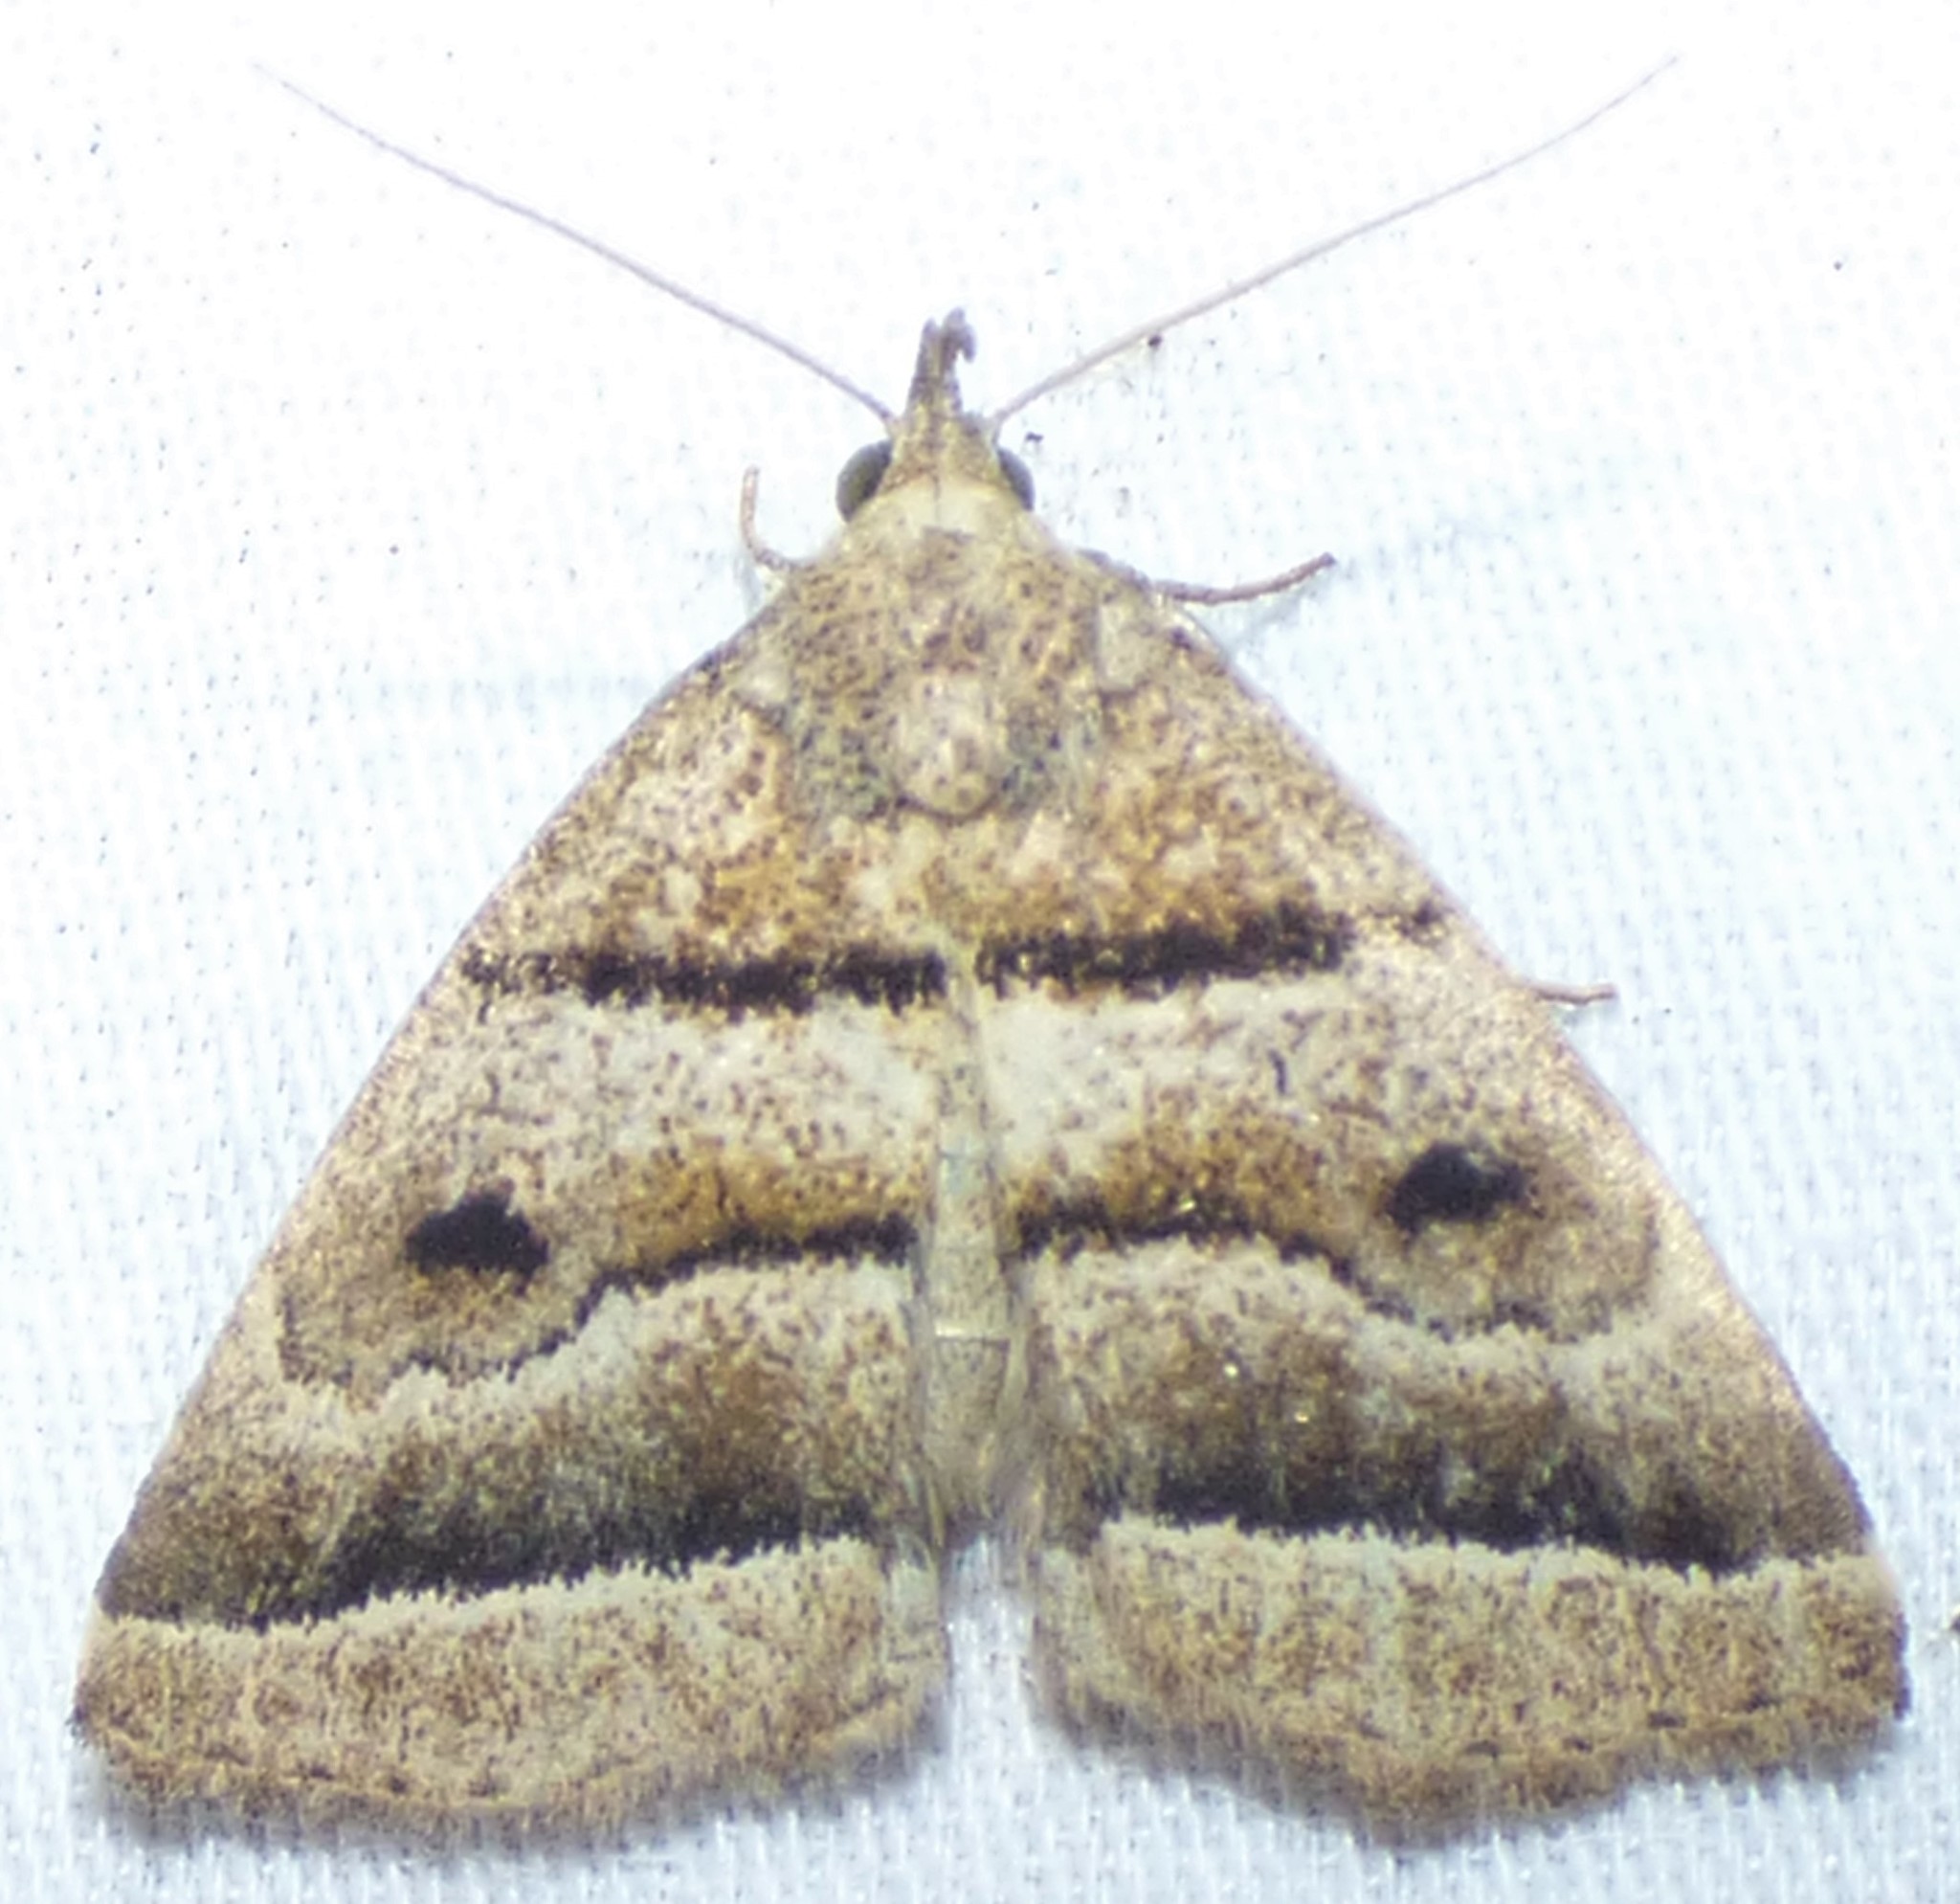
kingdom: Animalia
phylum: Arthropoda
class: Insecta
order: Lepidoptera
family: Erebidae
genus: Zanclognatha
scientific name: Zanclognatha atrilineella
